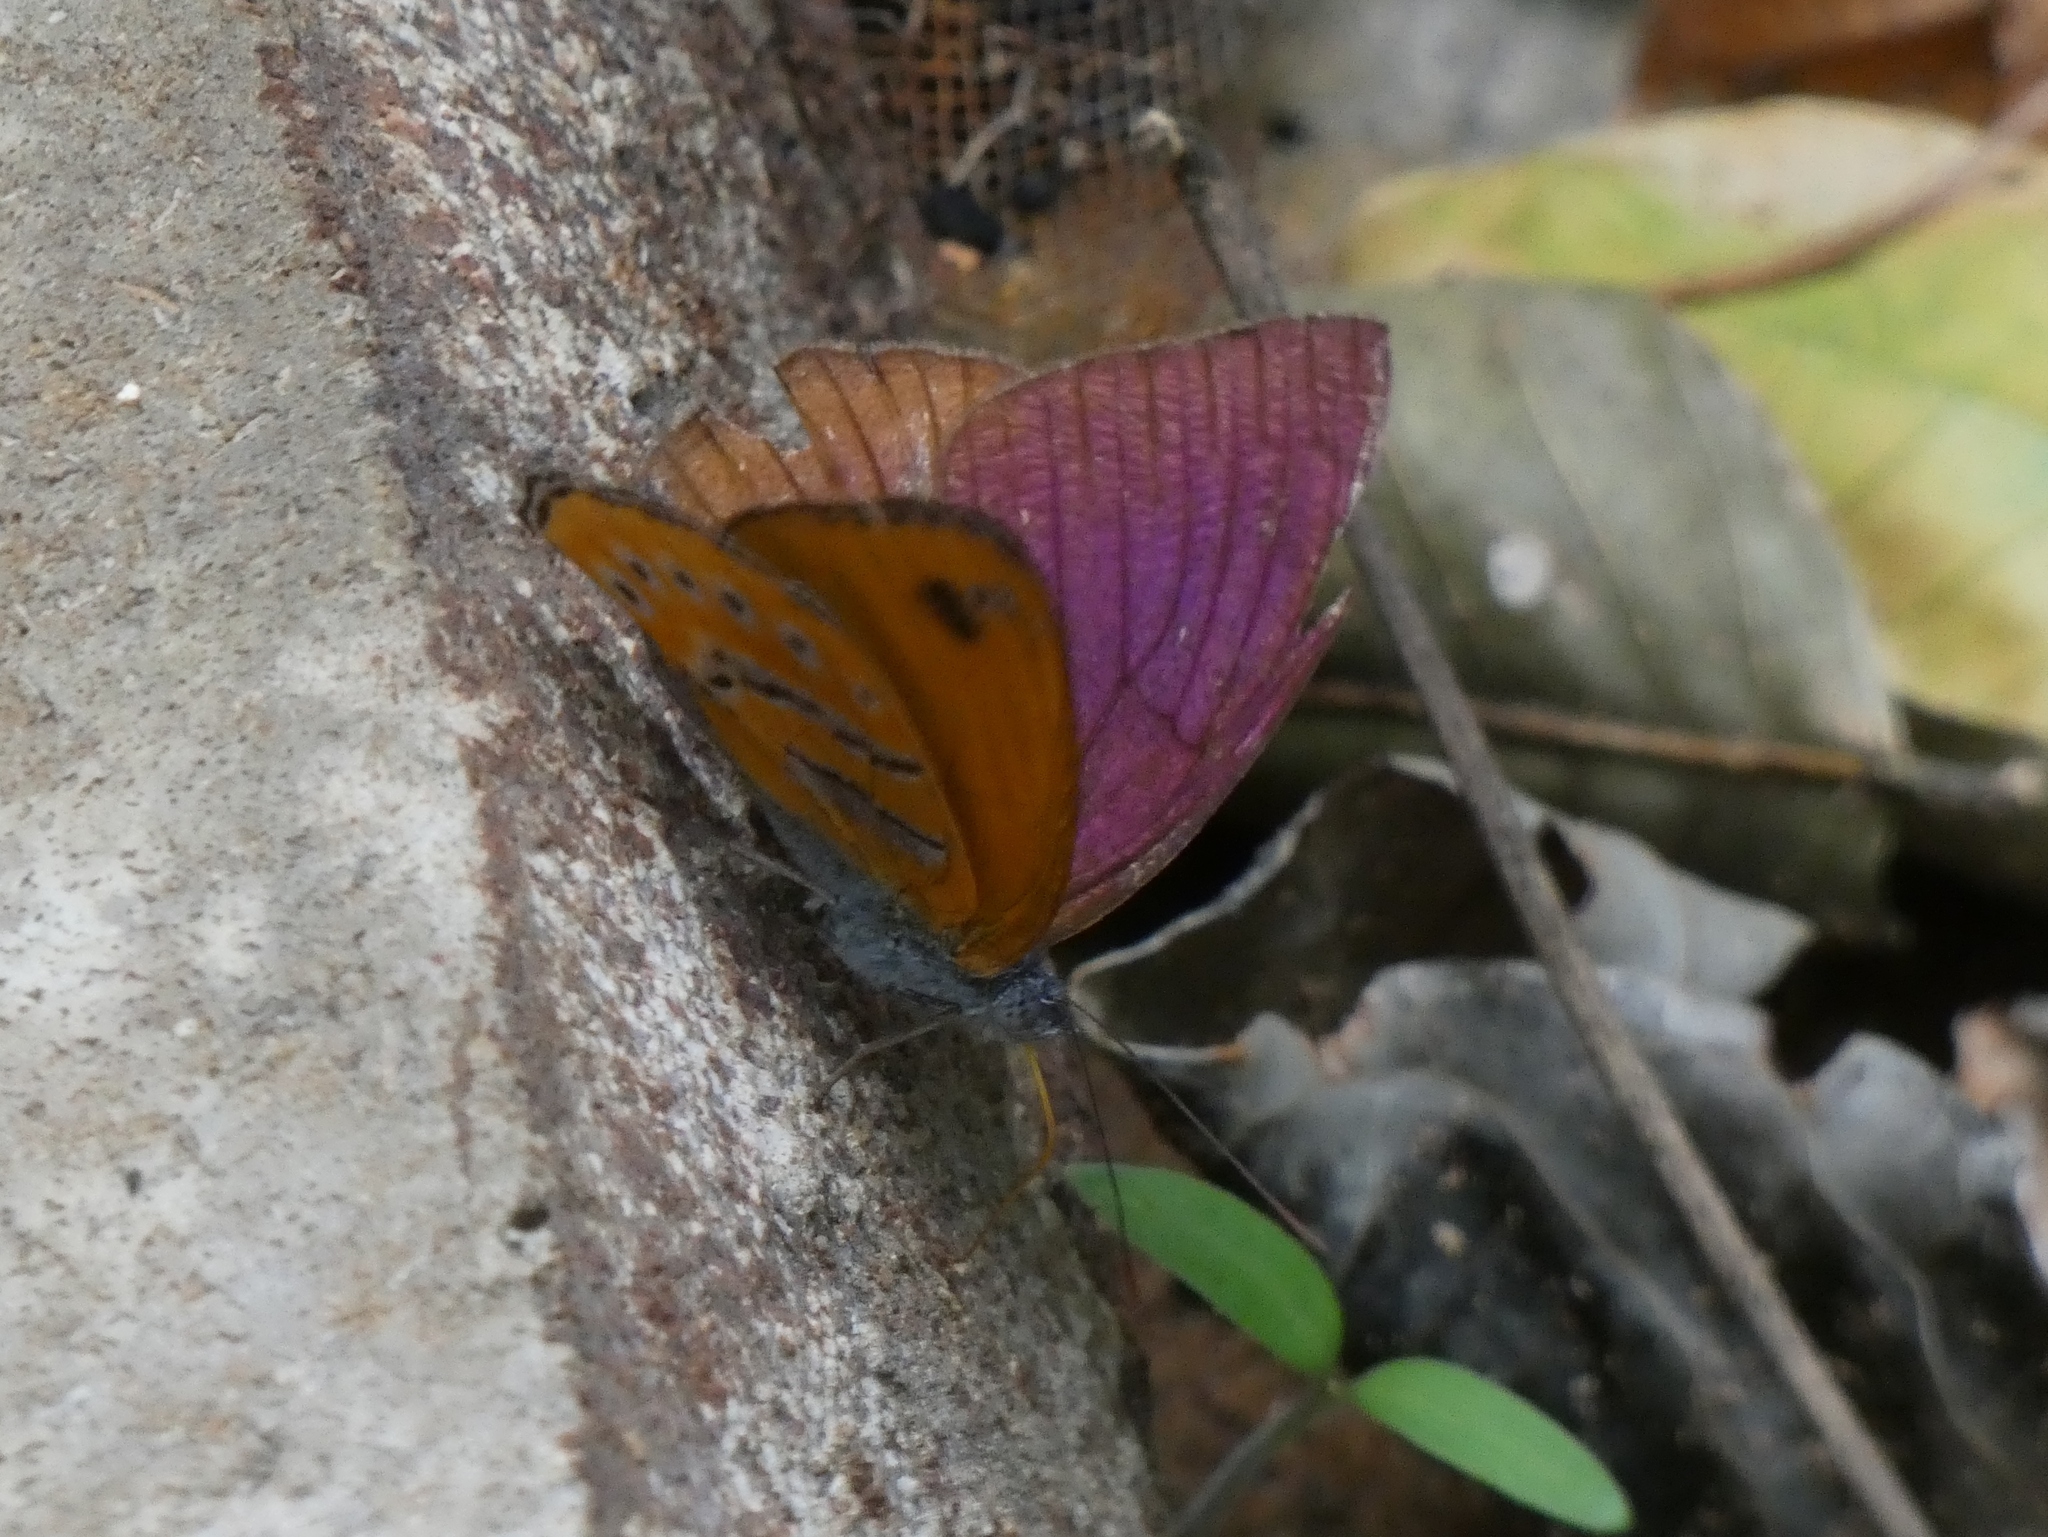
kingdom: Animalia
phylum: Arthropoda
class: Insecta
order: Lepidoptera
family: Nymphalidae
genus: Sevenia
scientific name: Sevenia
